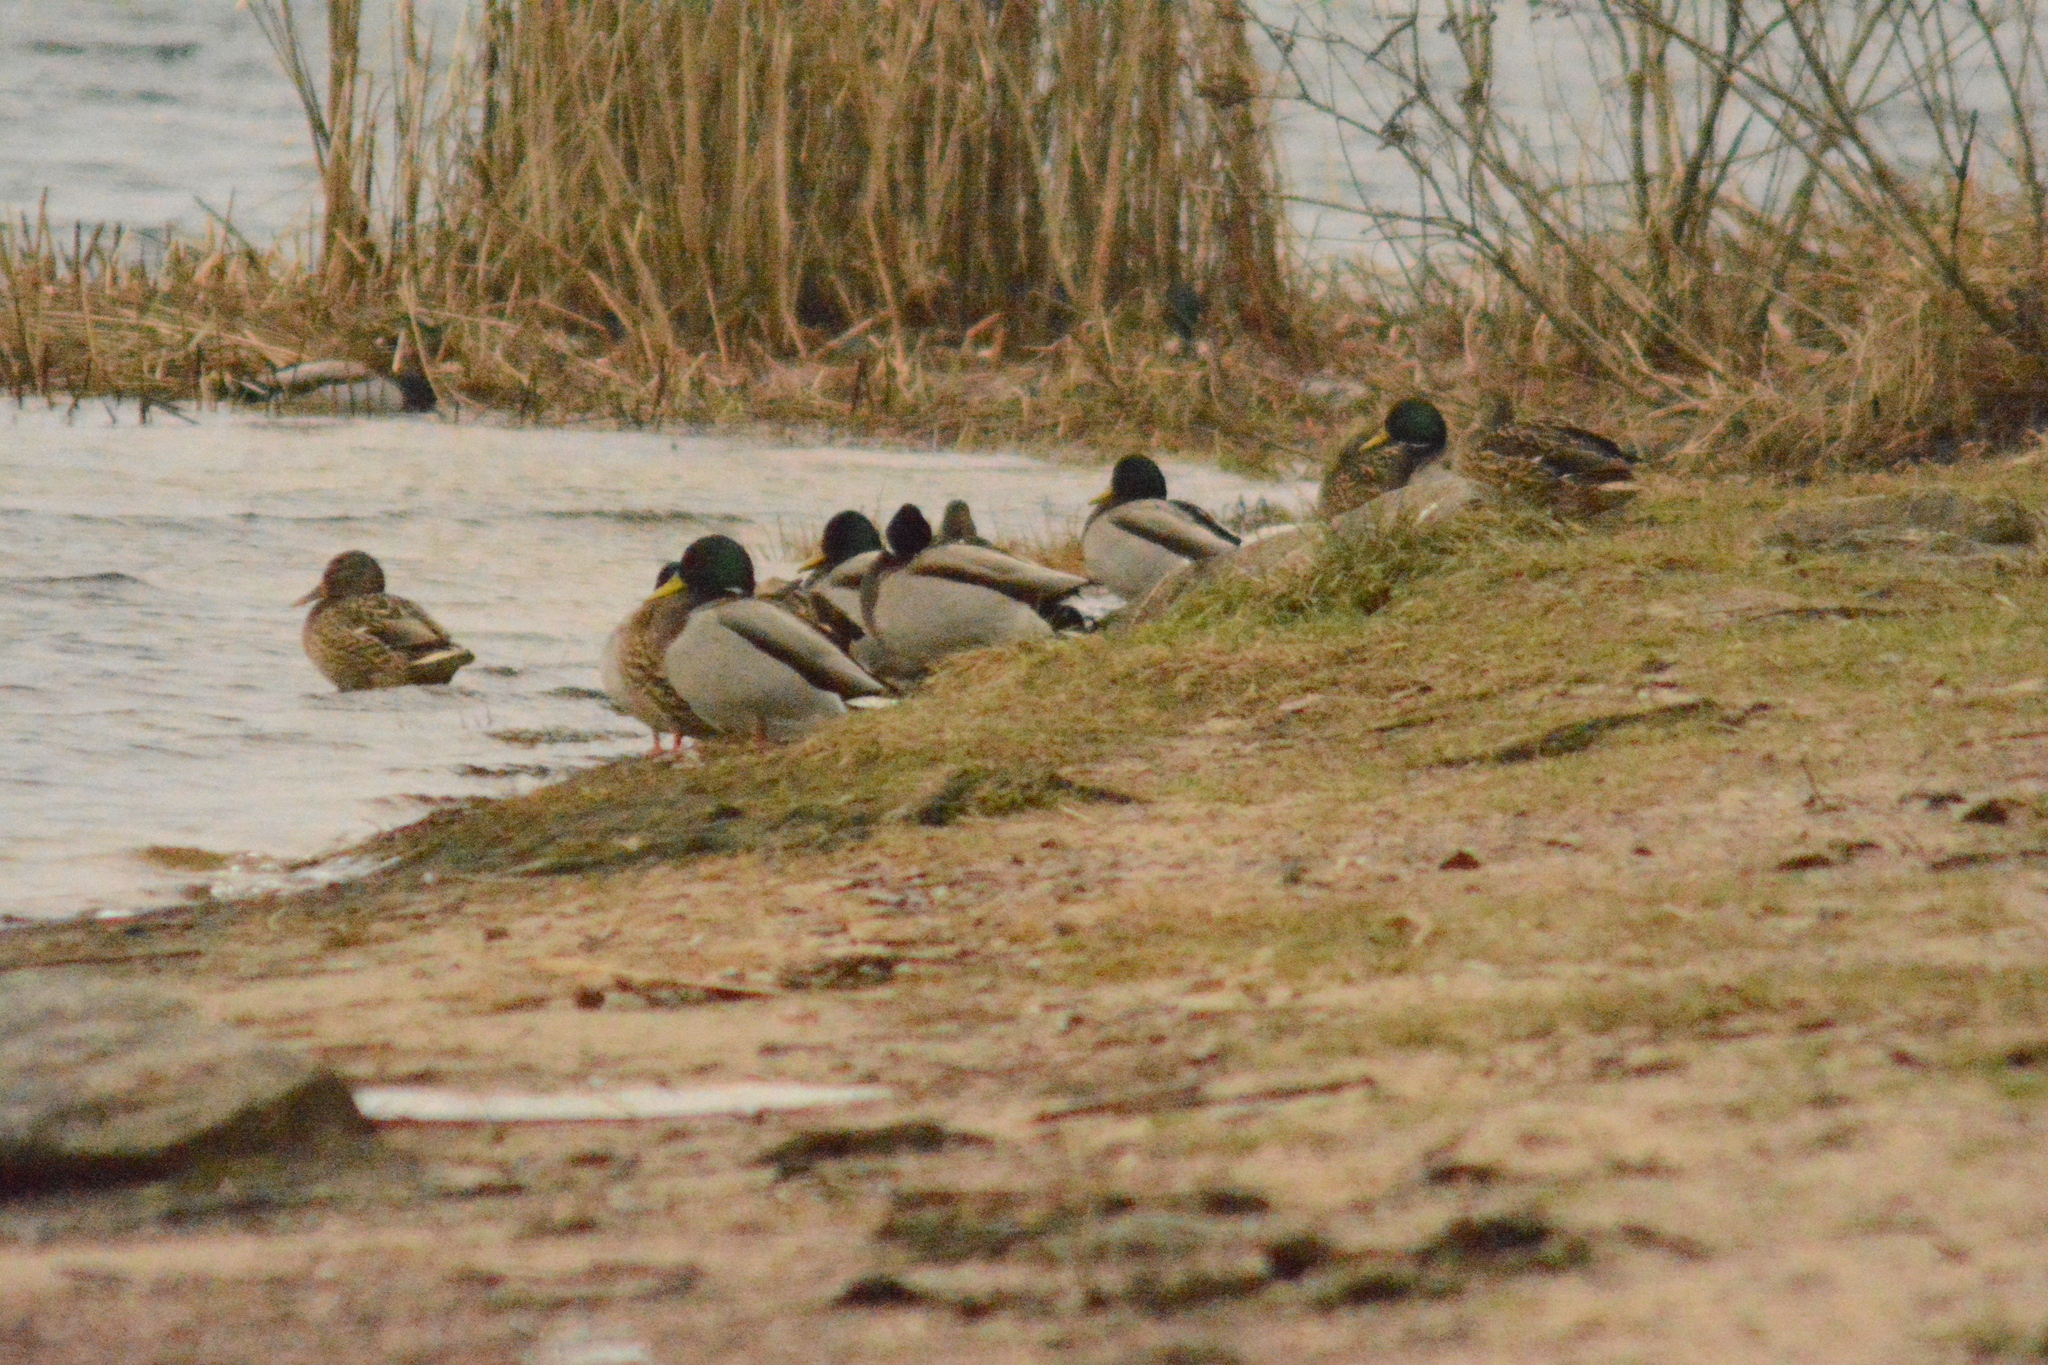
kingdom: Animalia
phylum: Chordata
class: Aves
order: Anseriformes
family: Anatidae
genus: Anas
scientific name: Anas platyrhynchos
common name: Mallard
